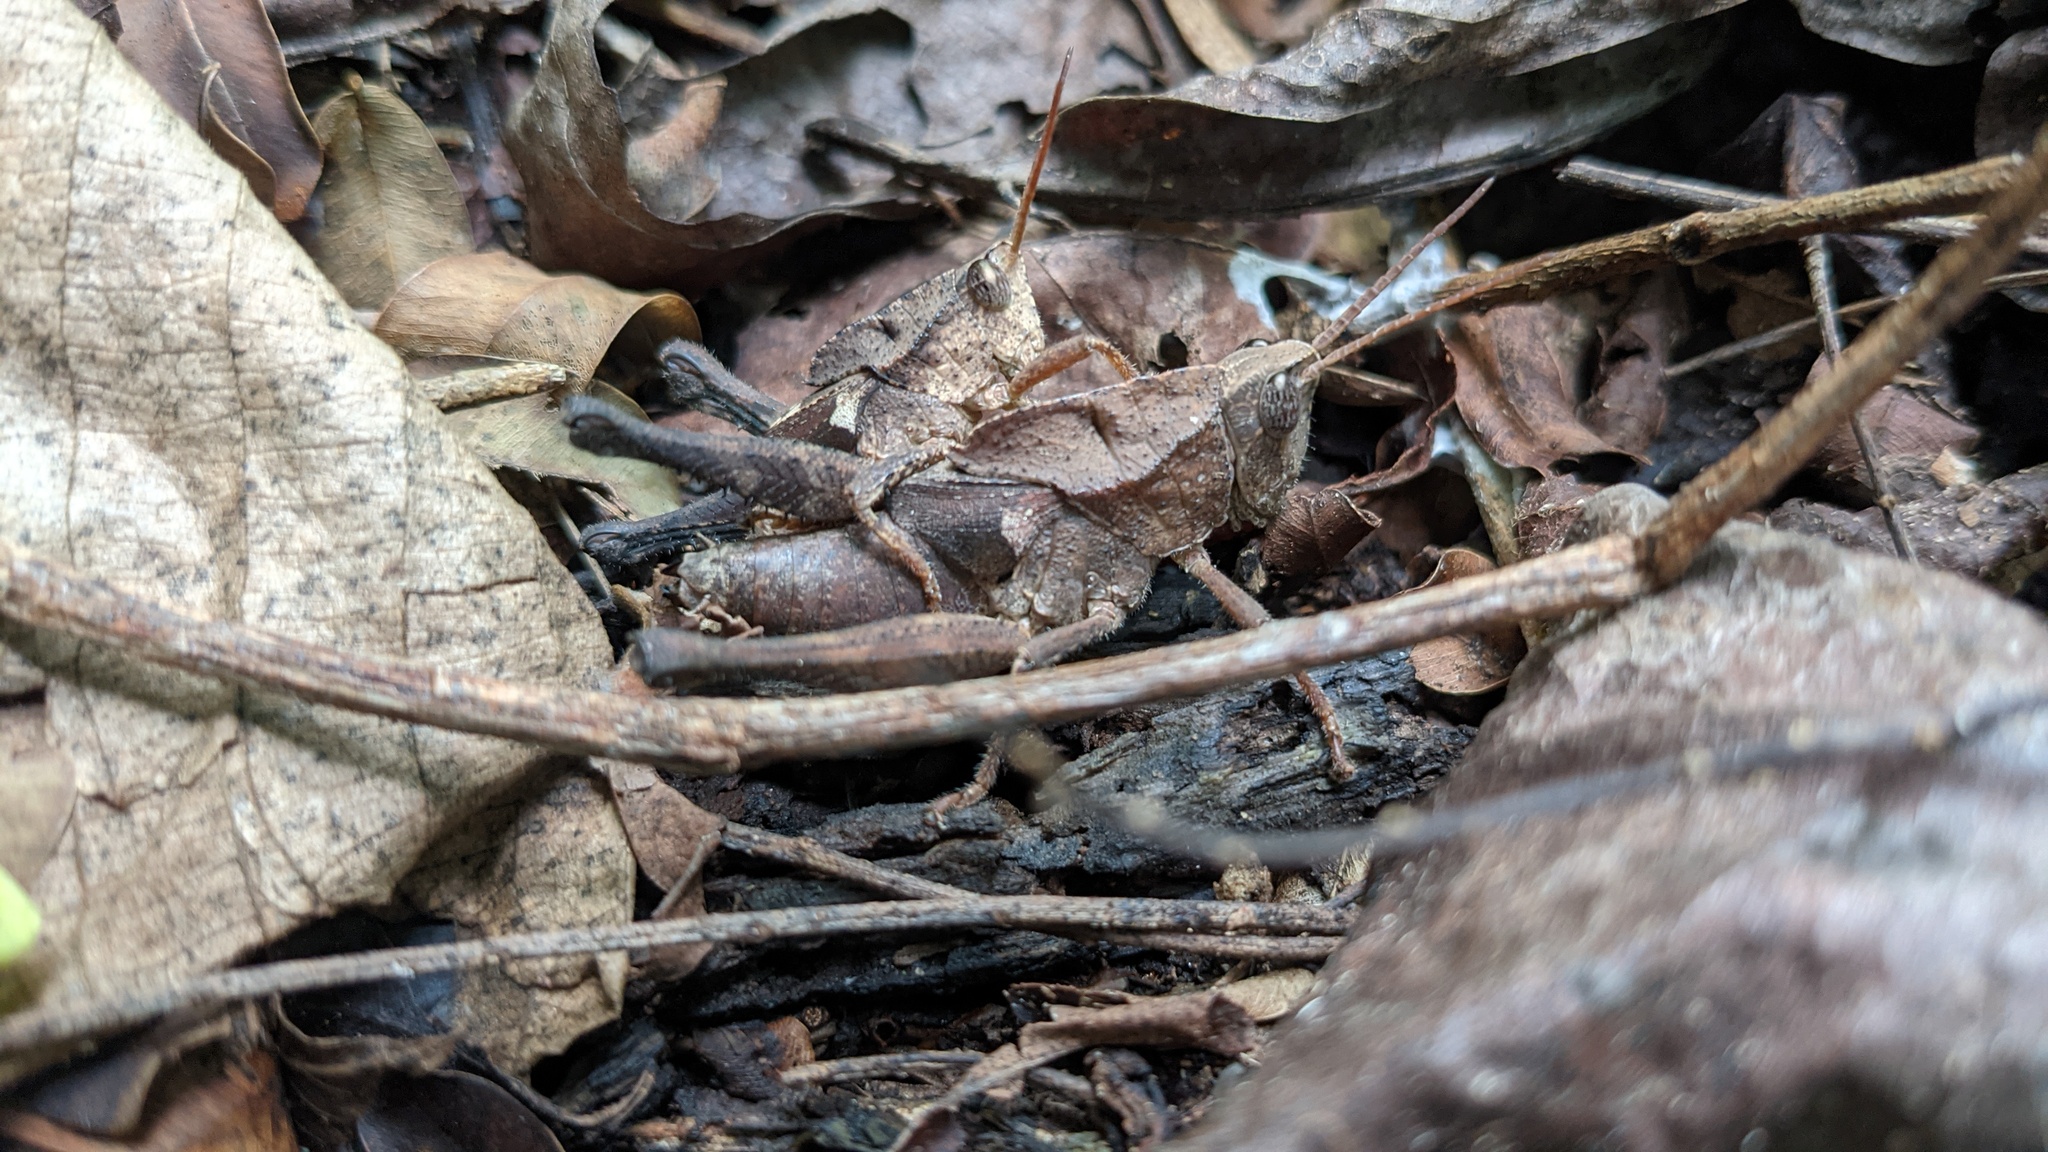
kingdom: Animalia
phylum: Arthropoda
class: Insecta
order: Orthoptera
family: Romaleidae
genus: Colpolopha
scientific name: Colpolopha simplex
